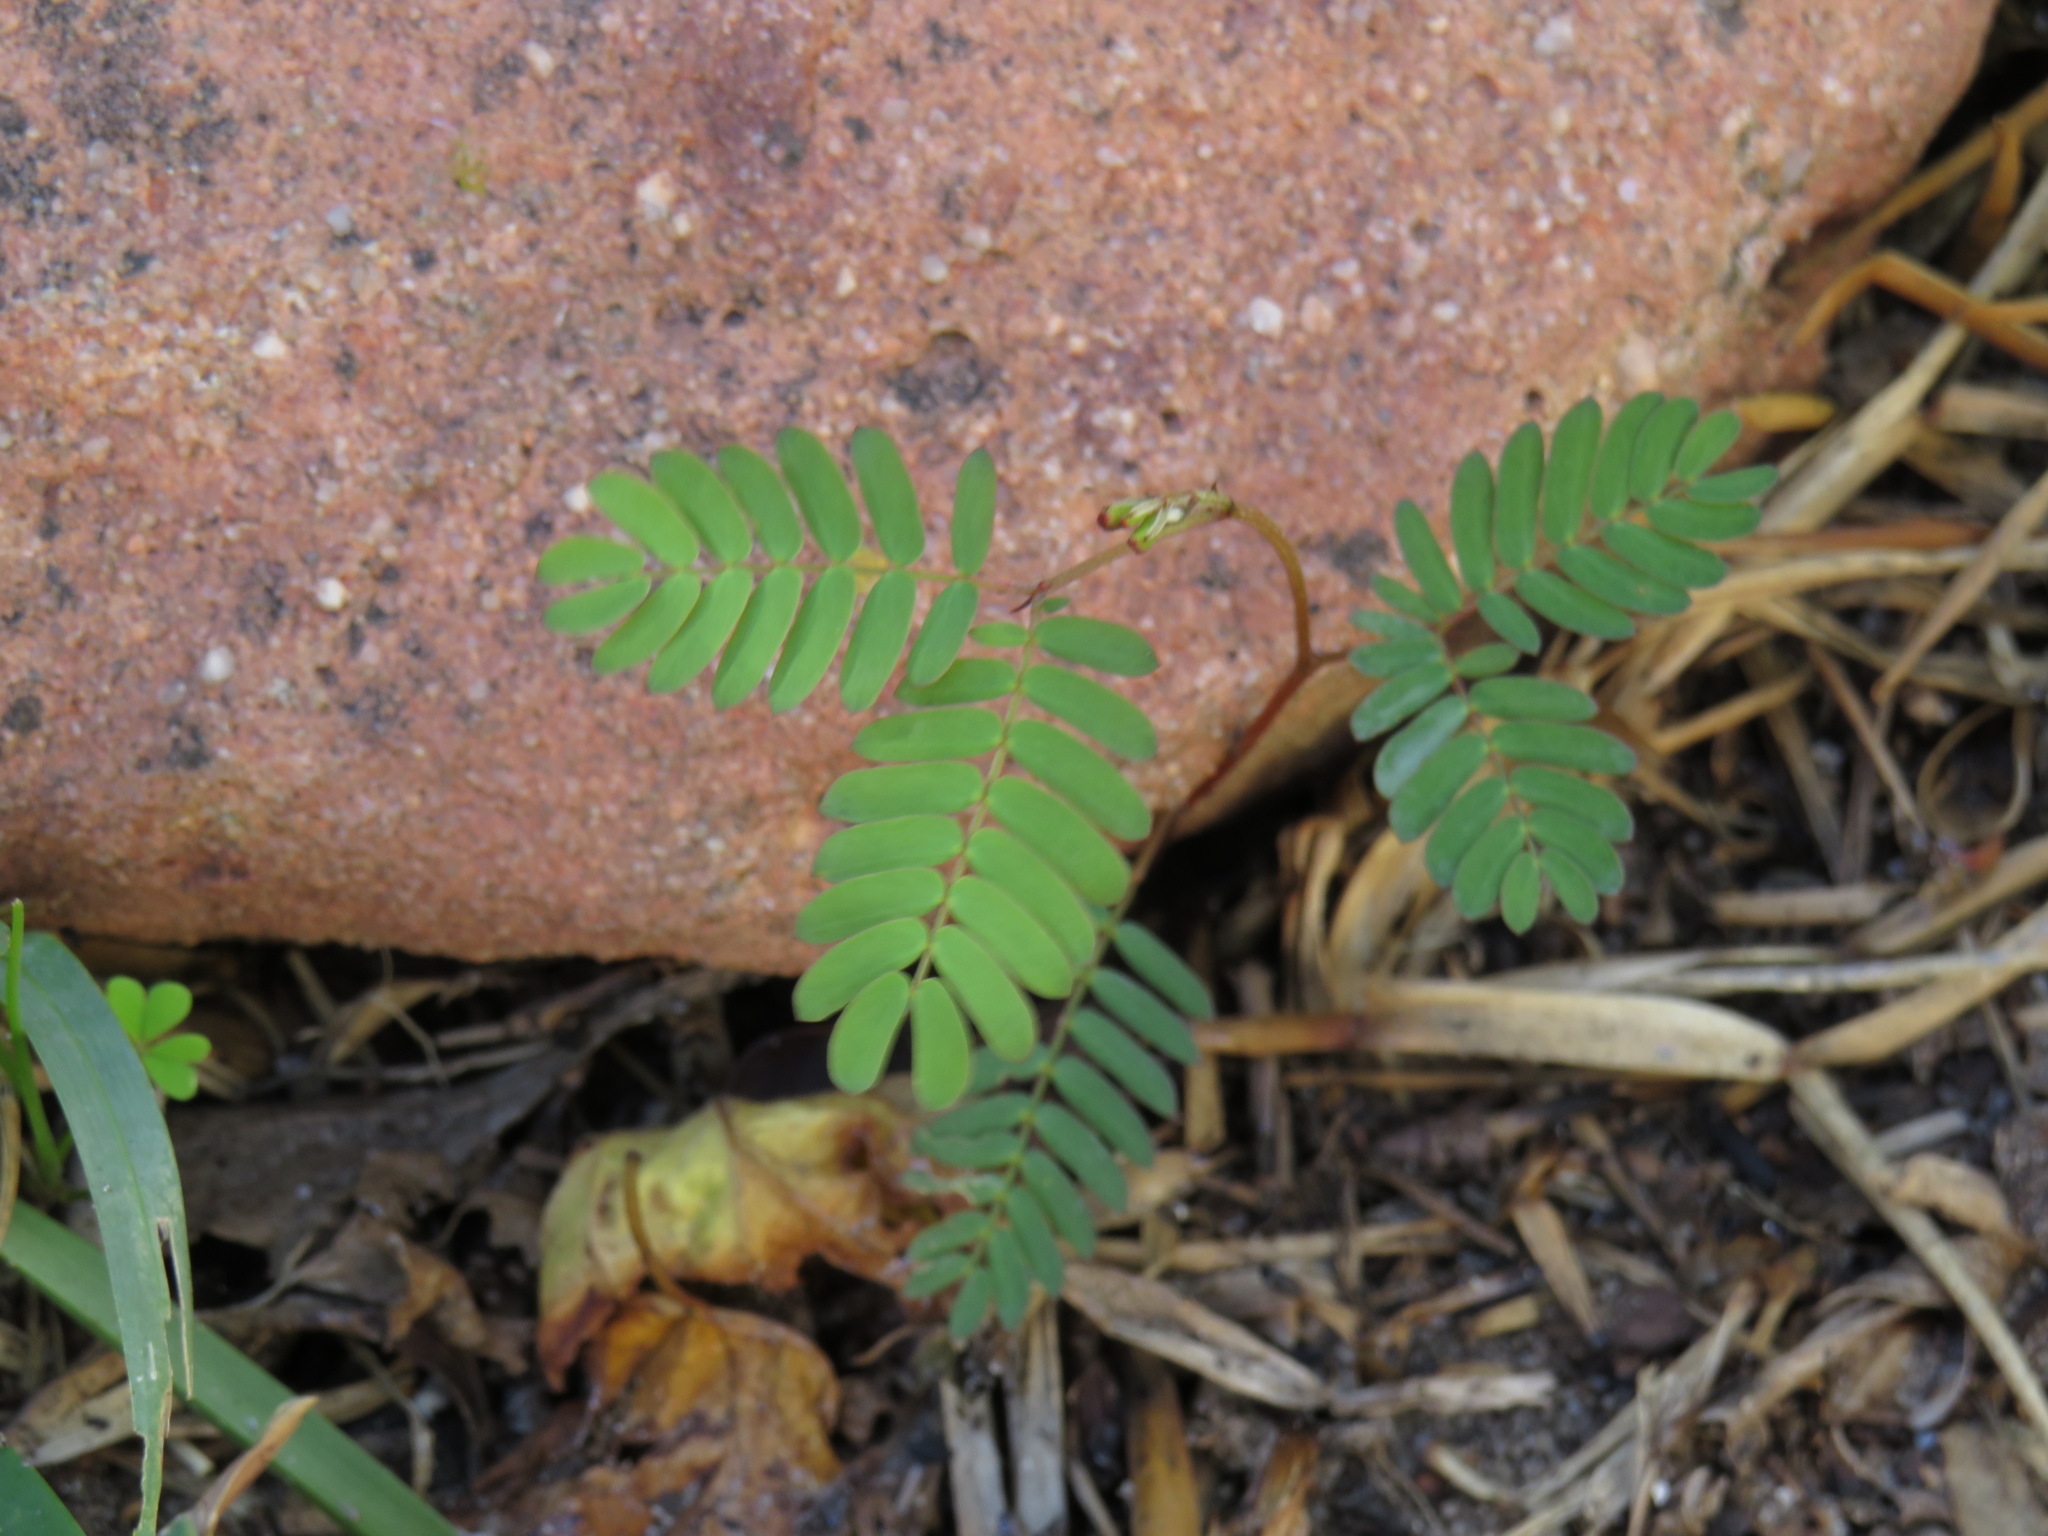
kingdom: Plantae
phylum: Tracheophyta
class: Magnoliopsida
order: Fabales
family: Fabaceae
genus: Paraserianthes
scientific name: Paraserianthes lophantha
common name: Plume albizia
